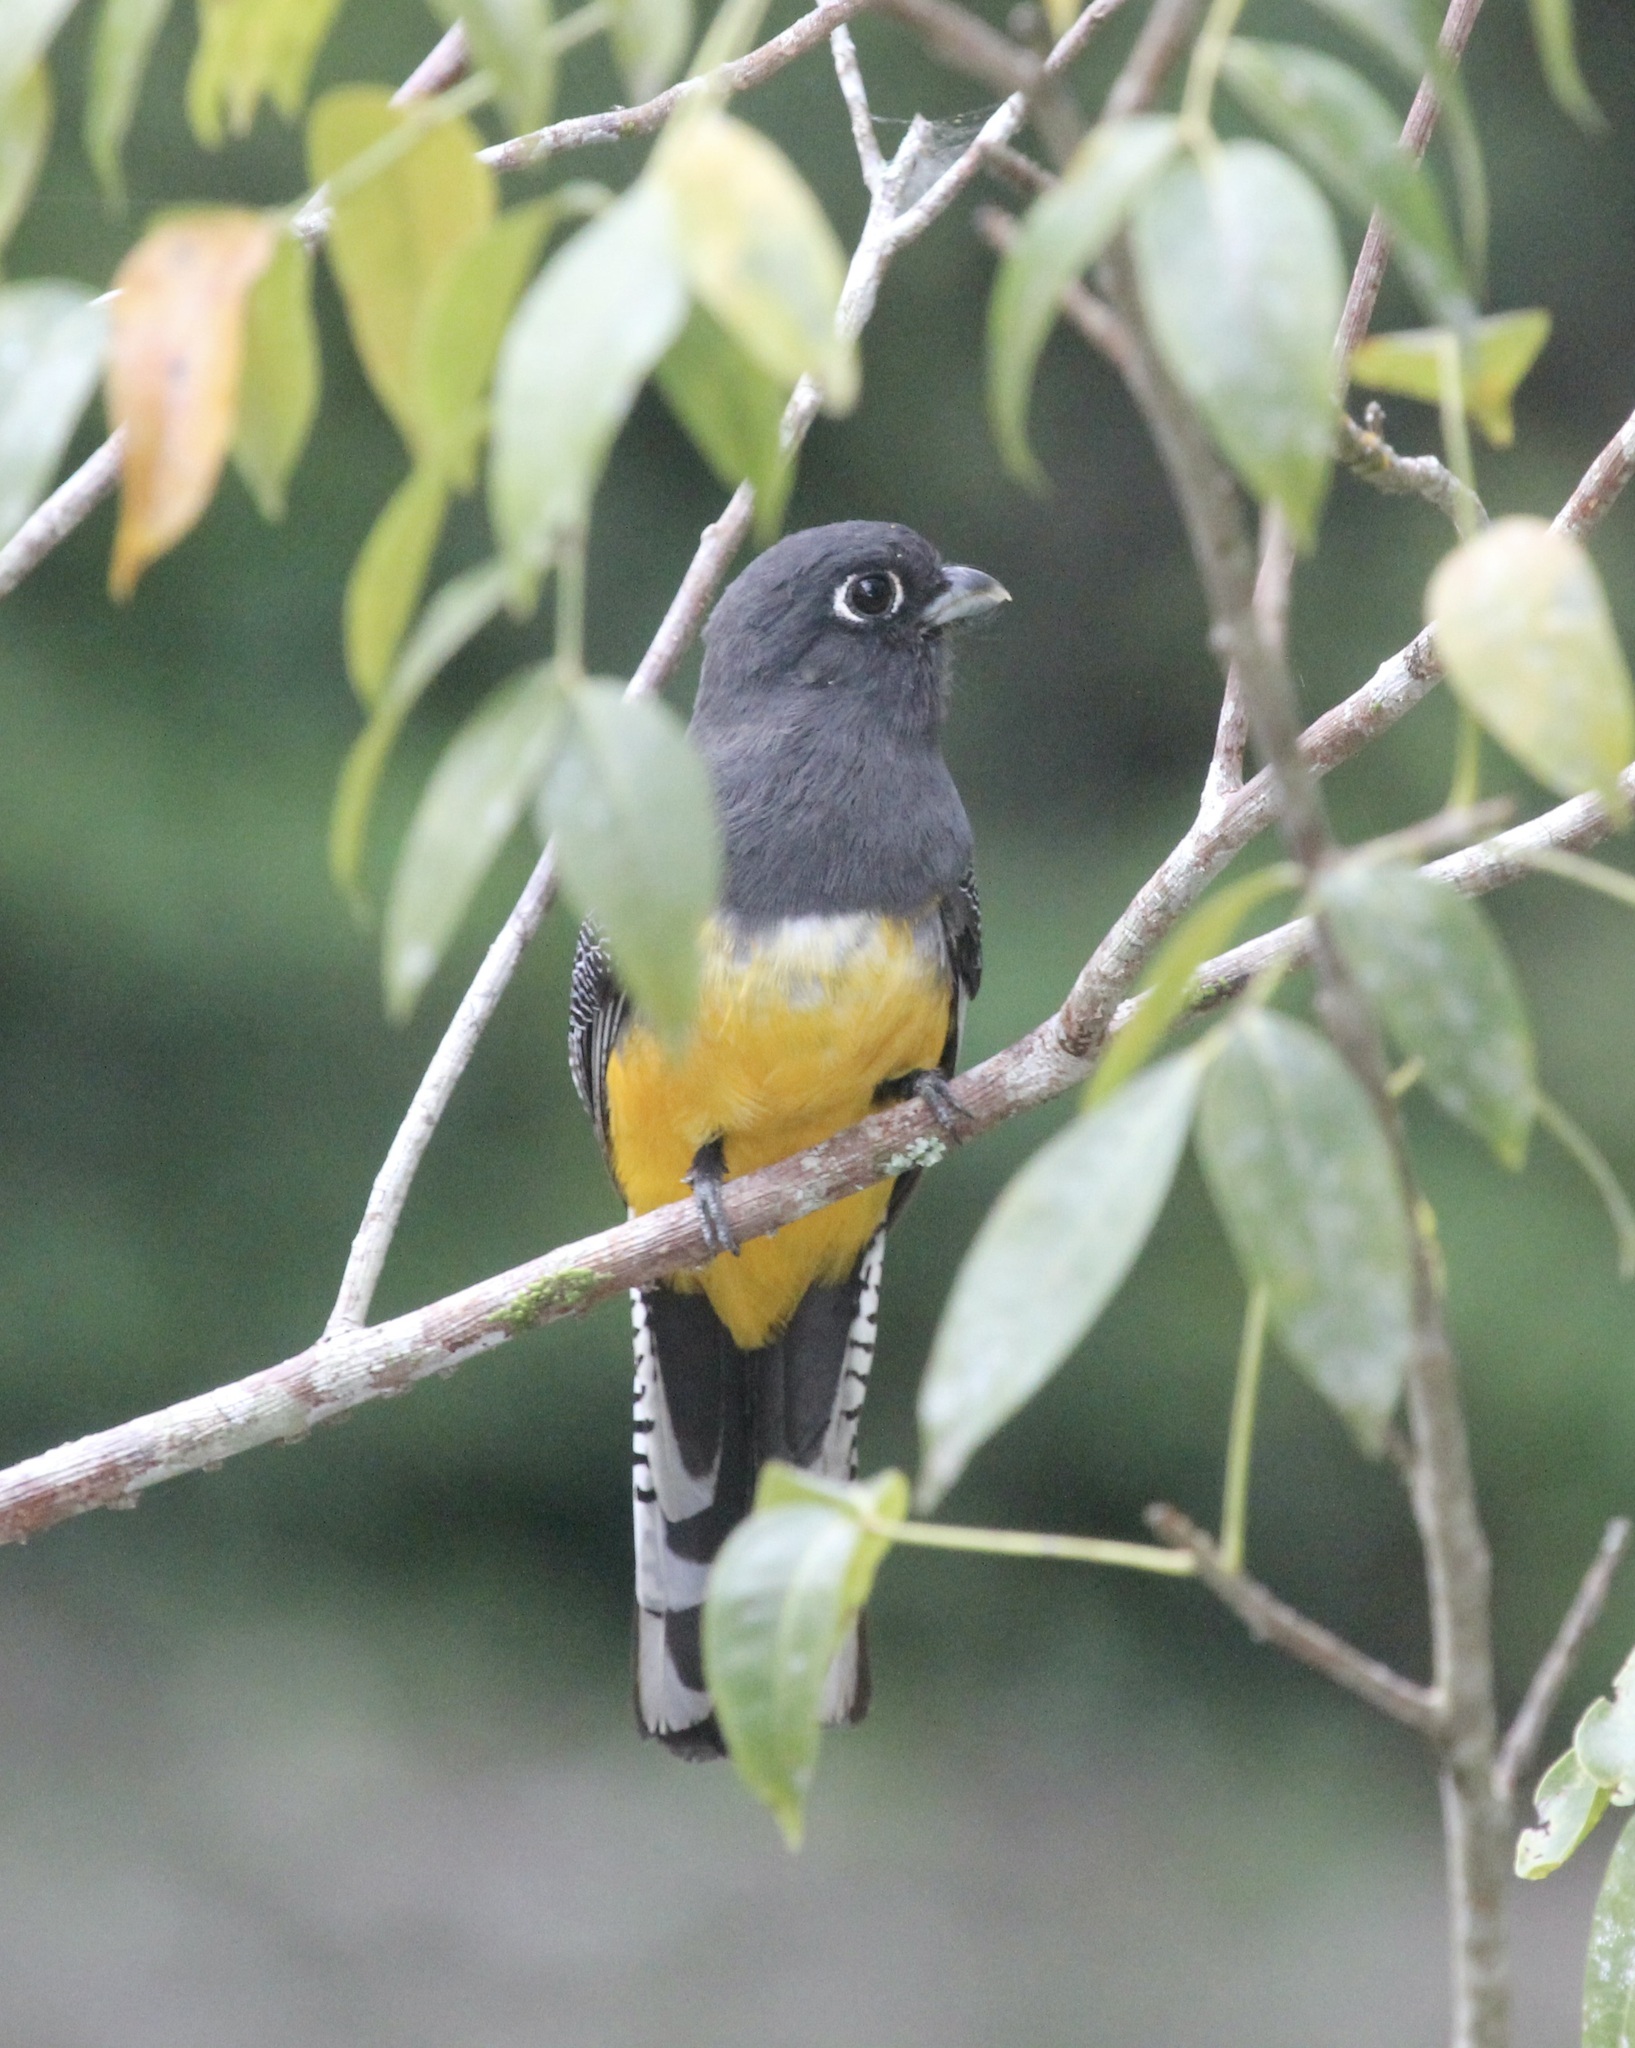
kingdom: Animalia
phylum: Chordata
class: Aves
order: Trogoniformes
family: Trogonidae
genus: Trogon
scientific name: Trogon caligatus
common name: Gartered trogon
